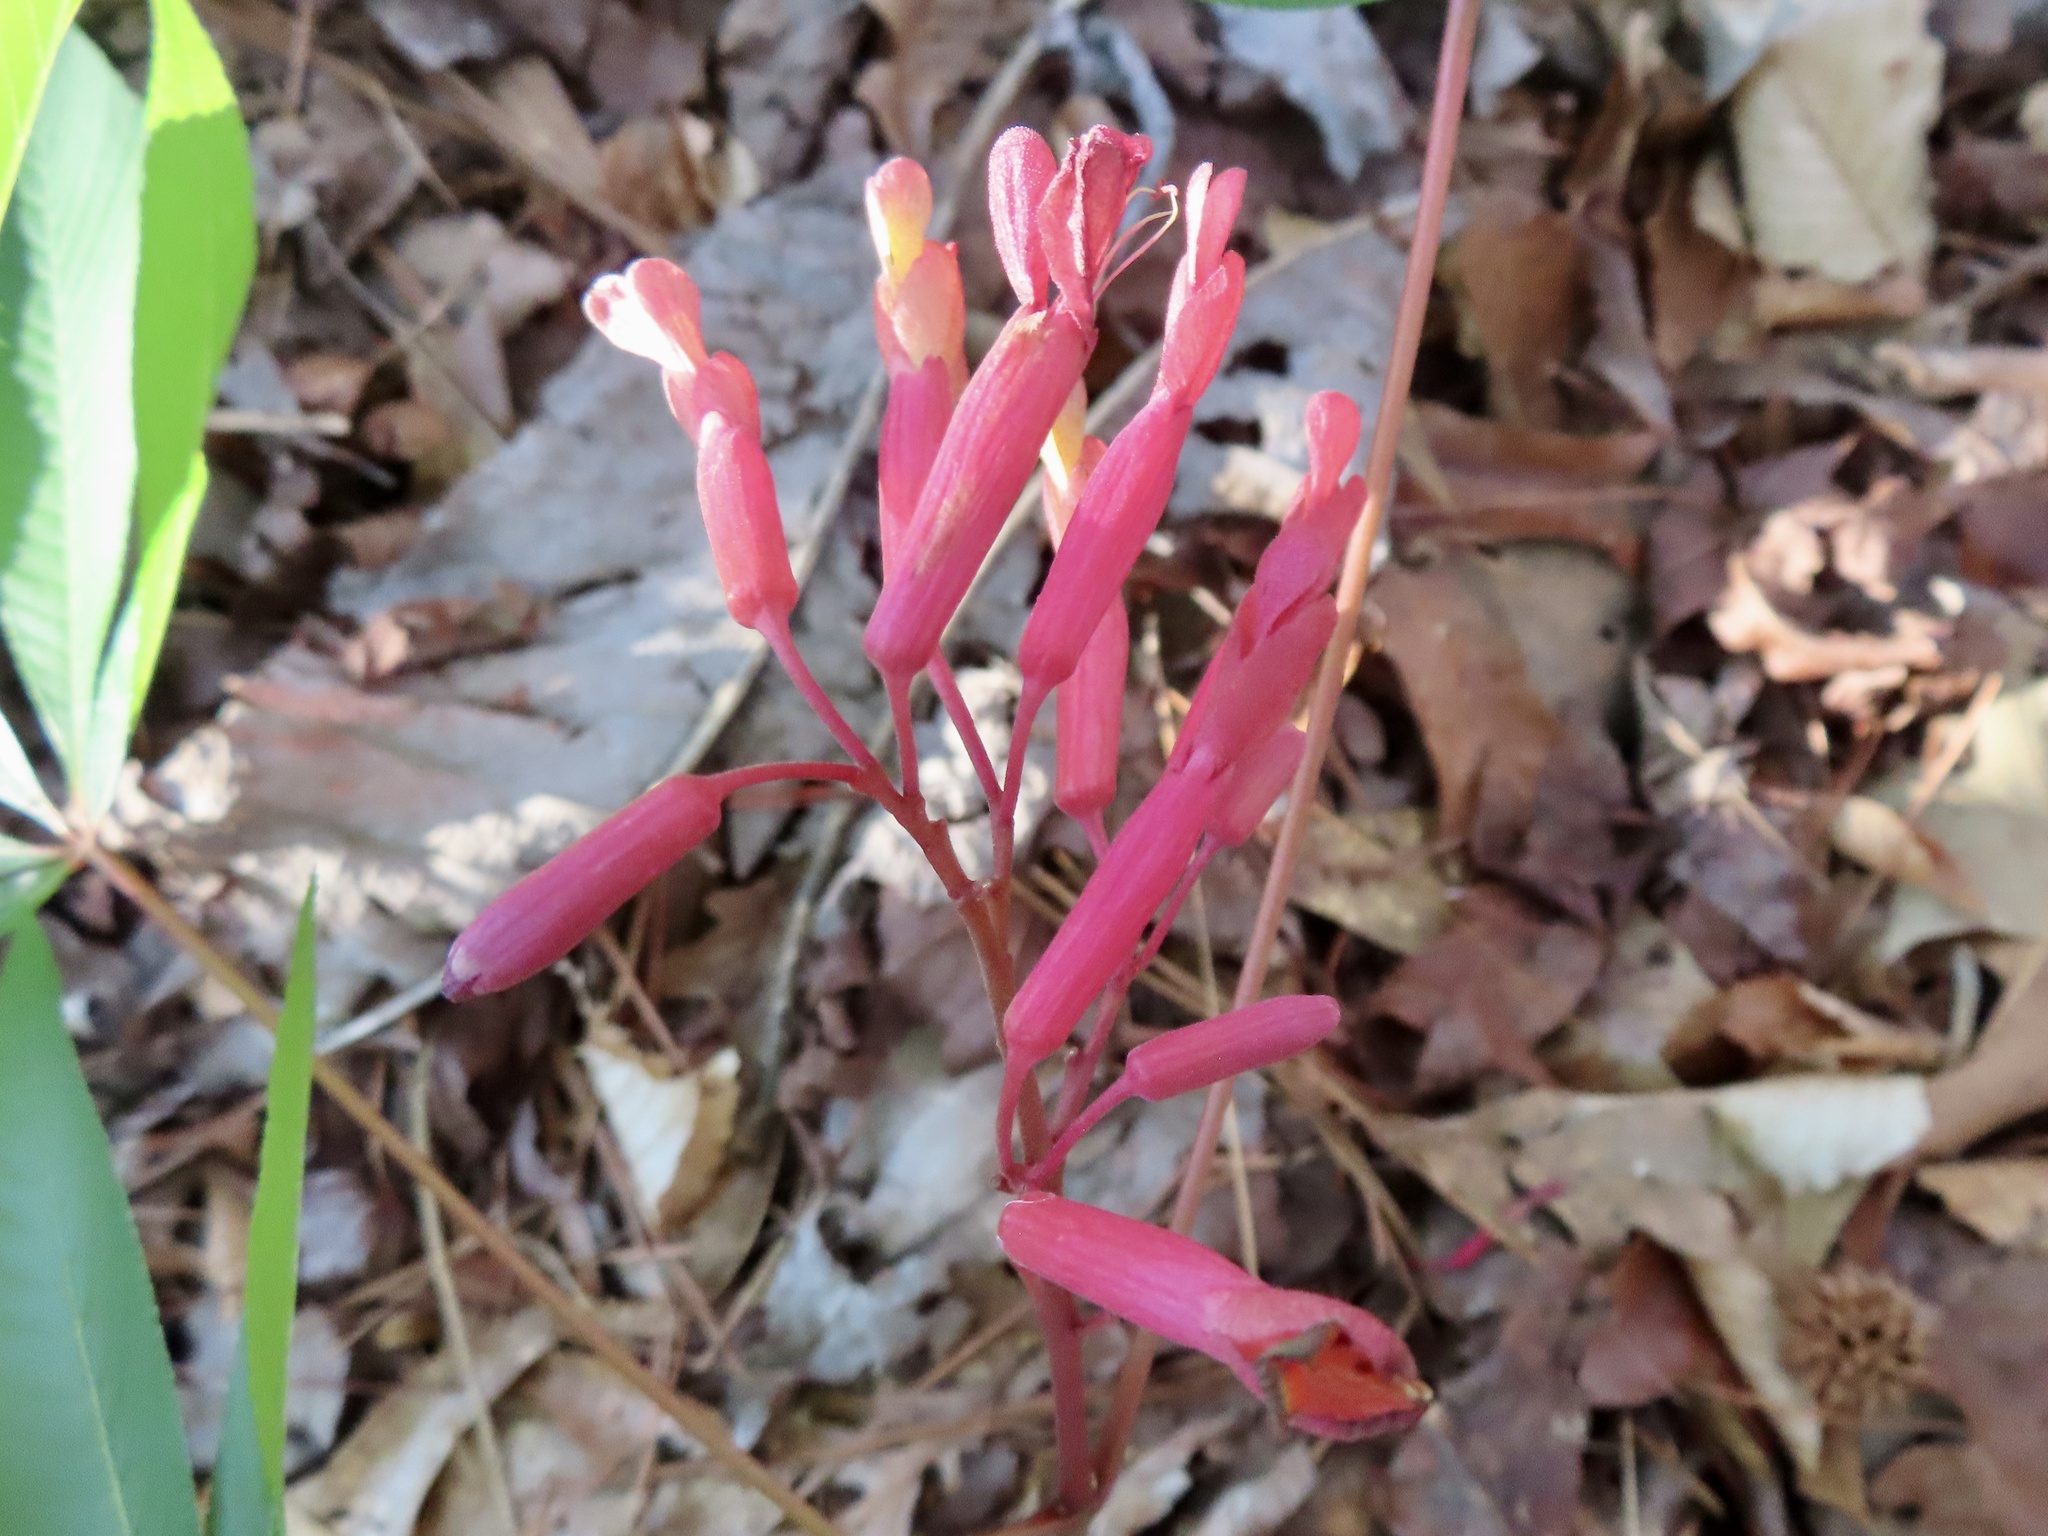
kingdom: Plantae
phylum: Tracheophyta
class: Magnoliopsida
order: Sapindales
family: Sapindaceae
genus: Aesculus
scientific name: Aesculus pavia
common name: Red buckeye
